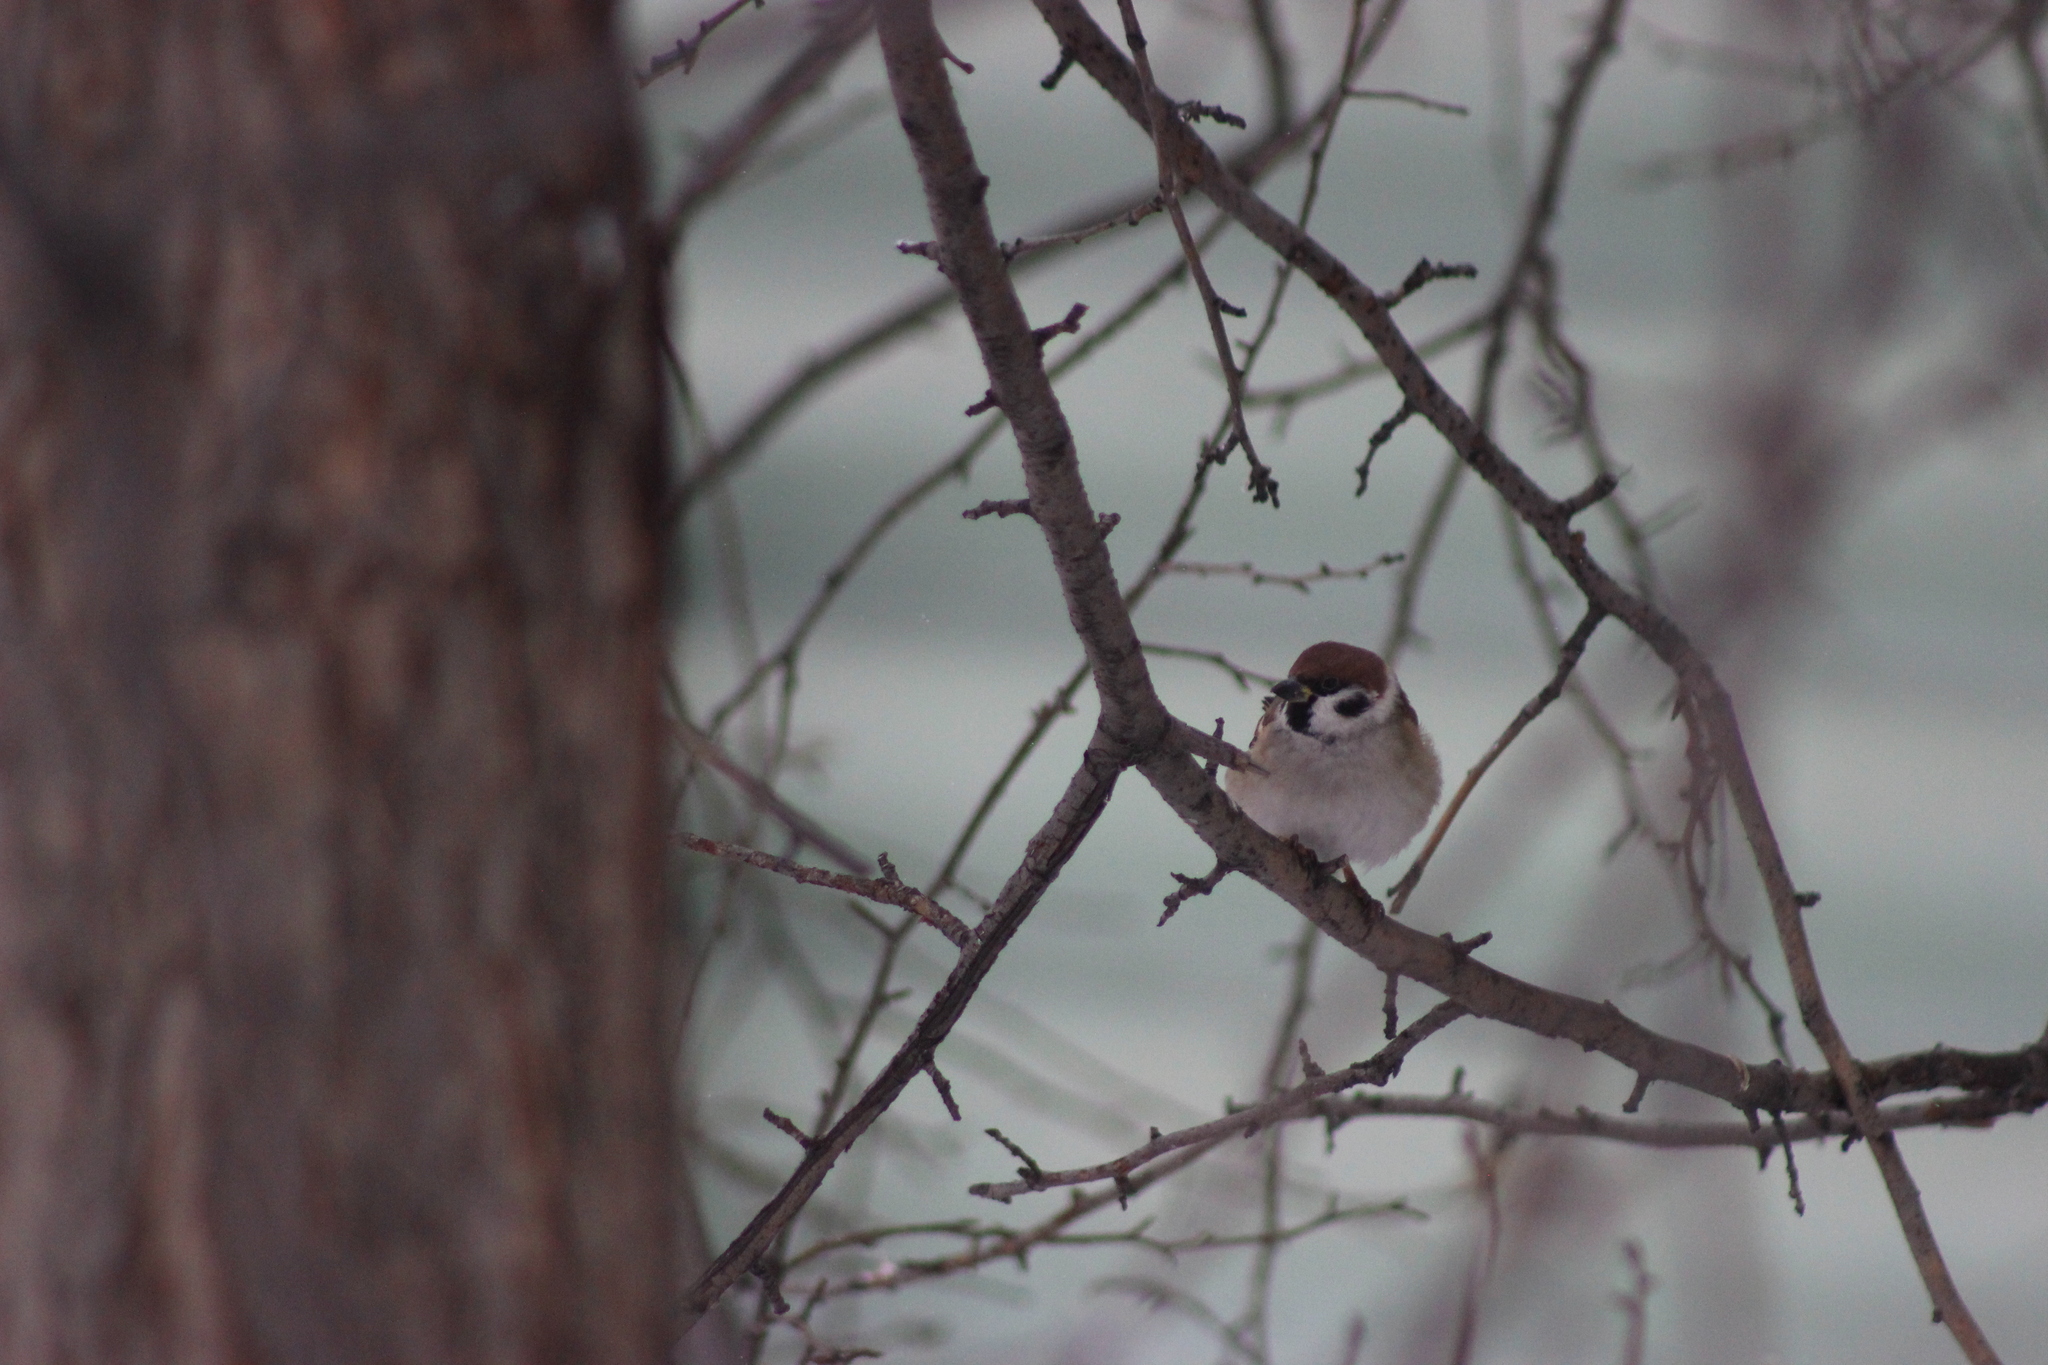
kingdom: Animalia
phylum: Chordata
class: Aves
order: Passeriformes
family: Passeridae
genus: Passer
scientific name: Passer montanus
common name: Eurasian tree sparrow
